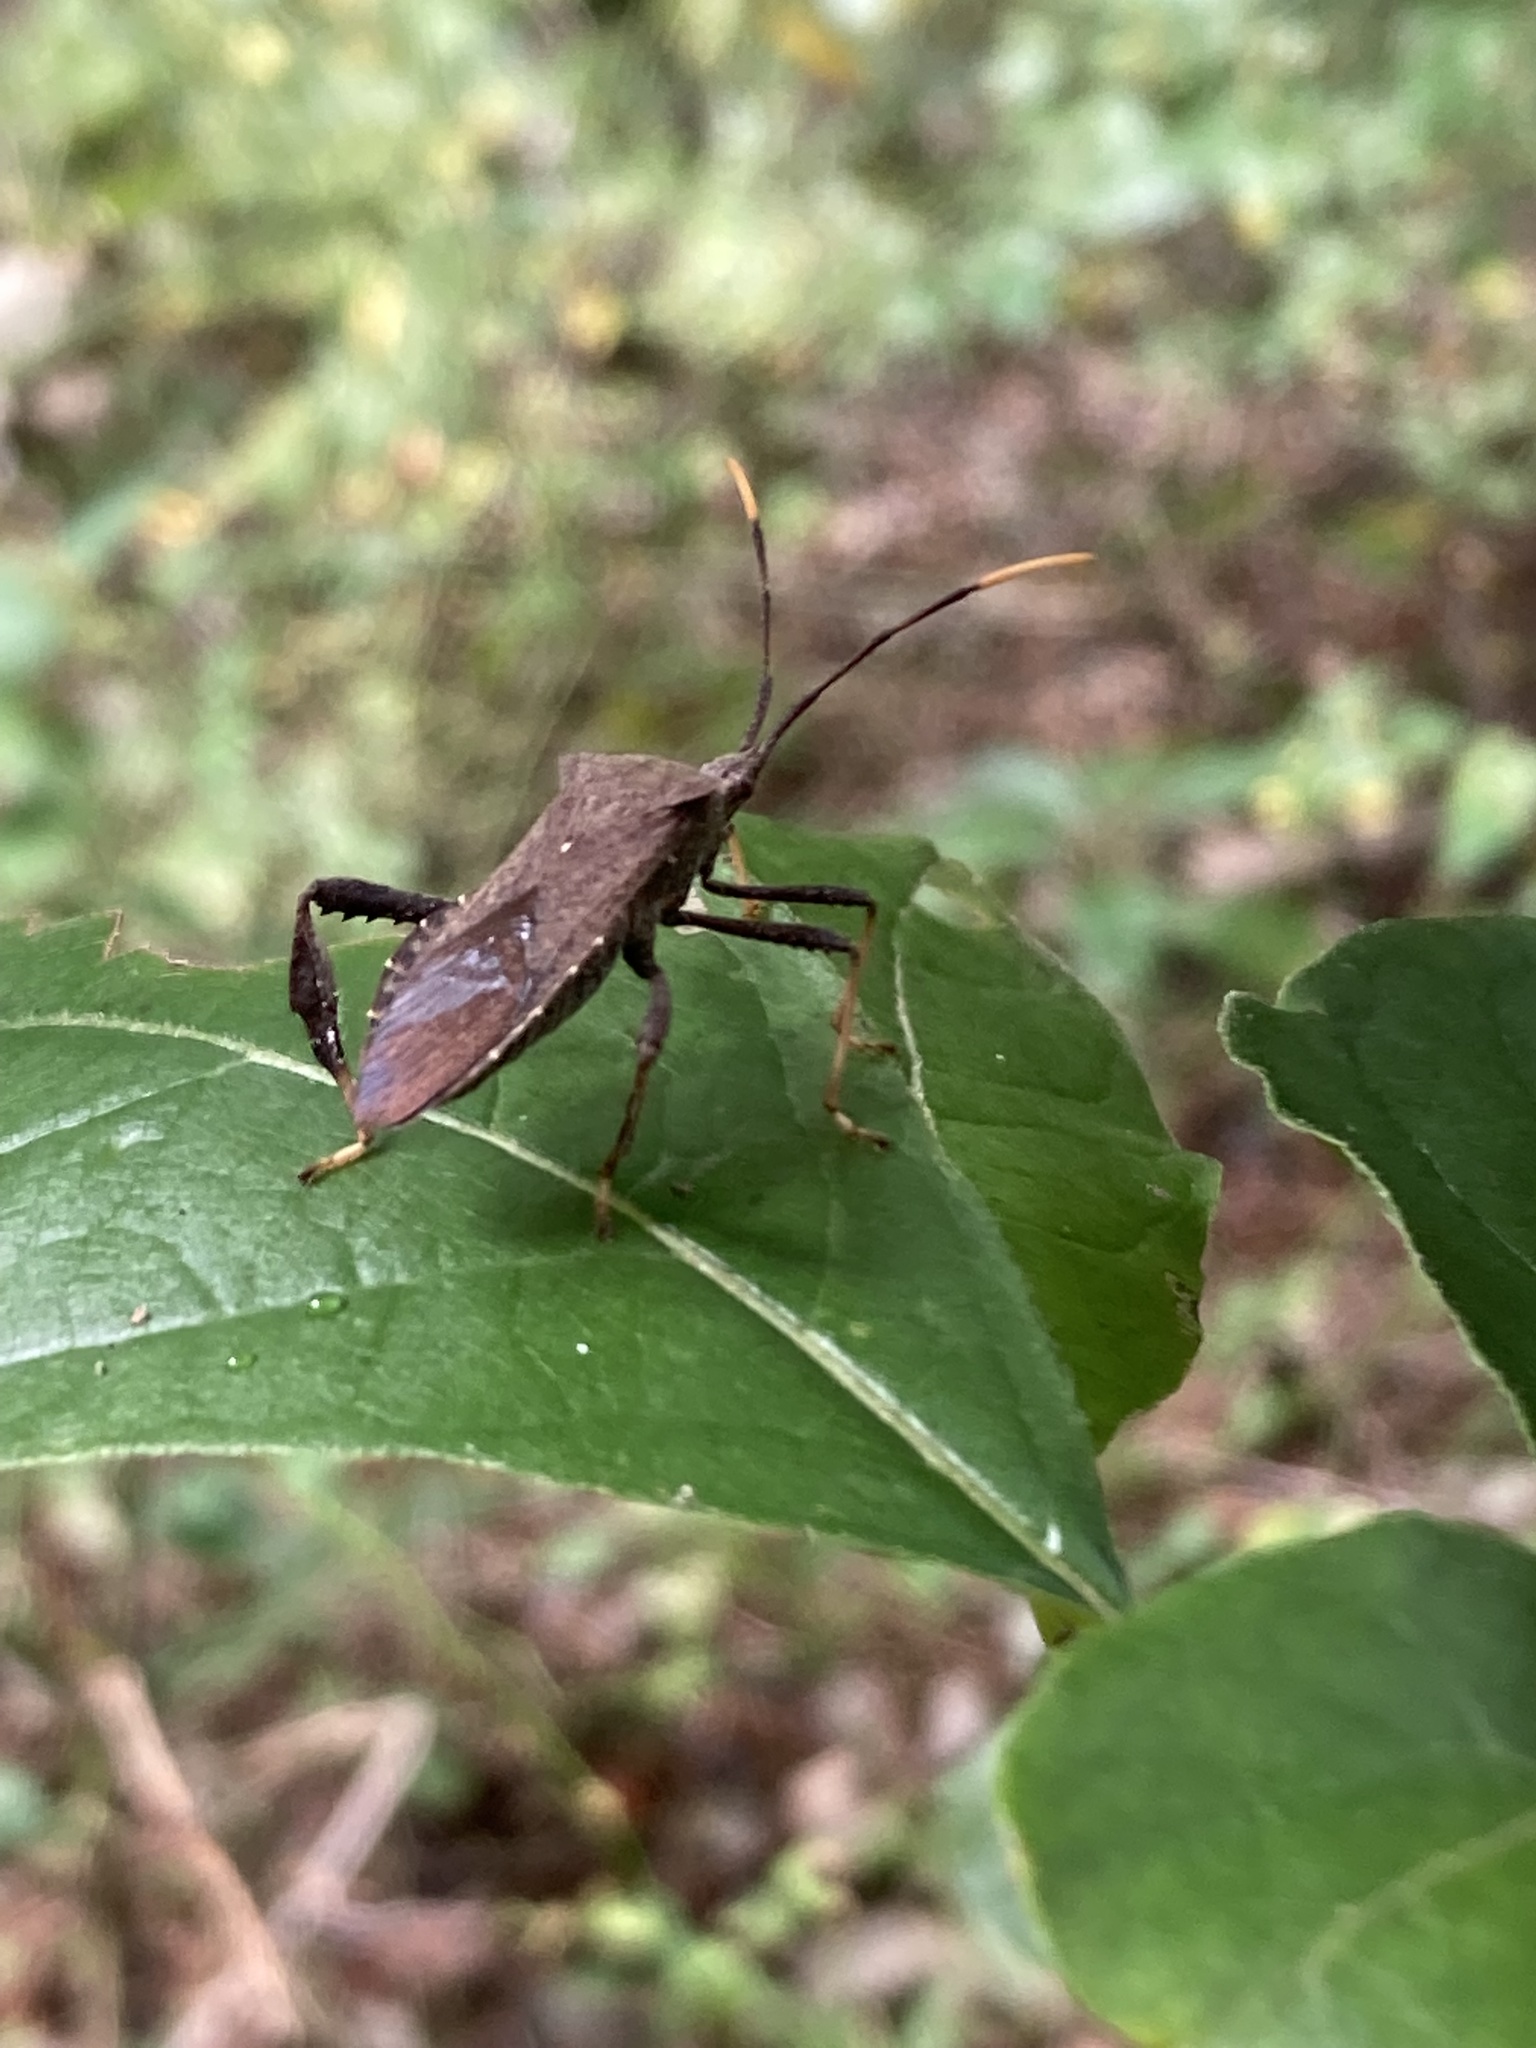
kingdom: Animalia
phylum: Arthropoda
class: Insecta
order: Hemiptera
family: Coreidae
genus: Acanthocephala
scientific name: Acanthocephala terminalis
